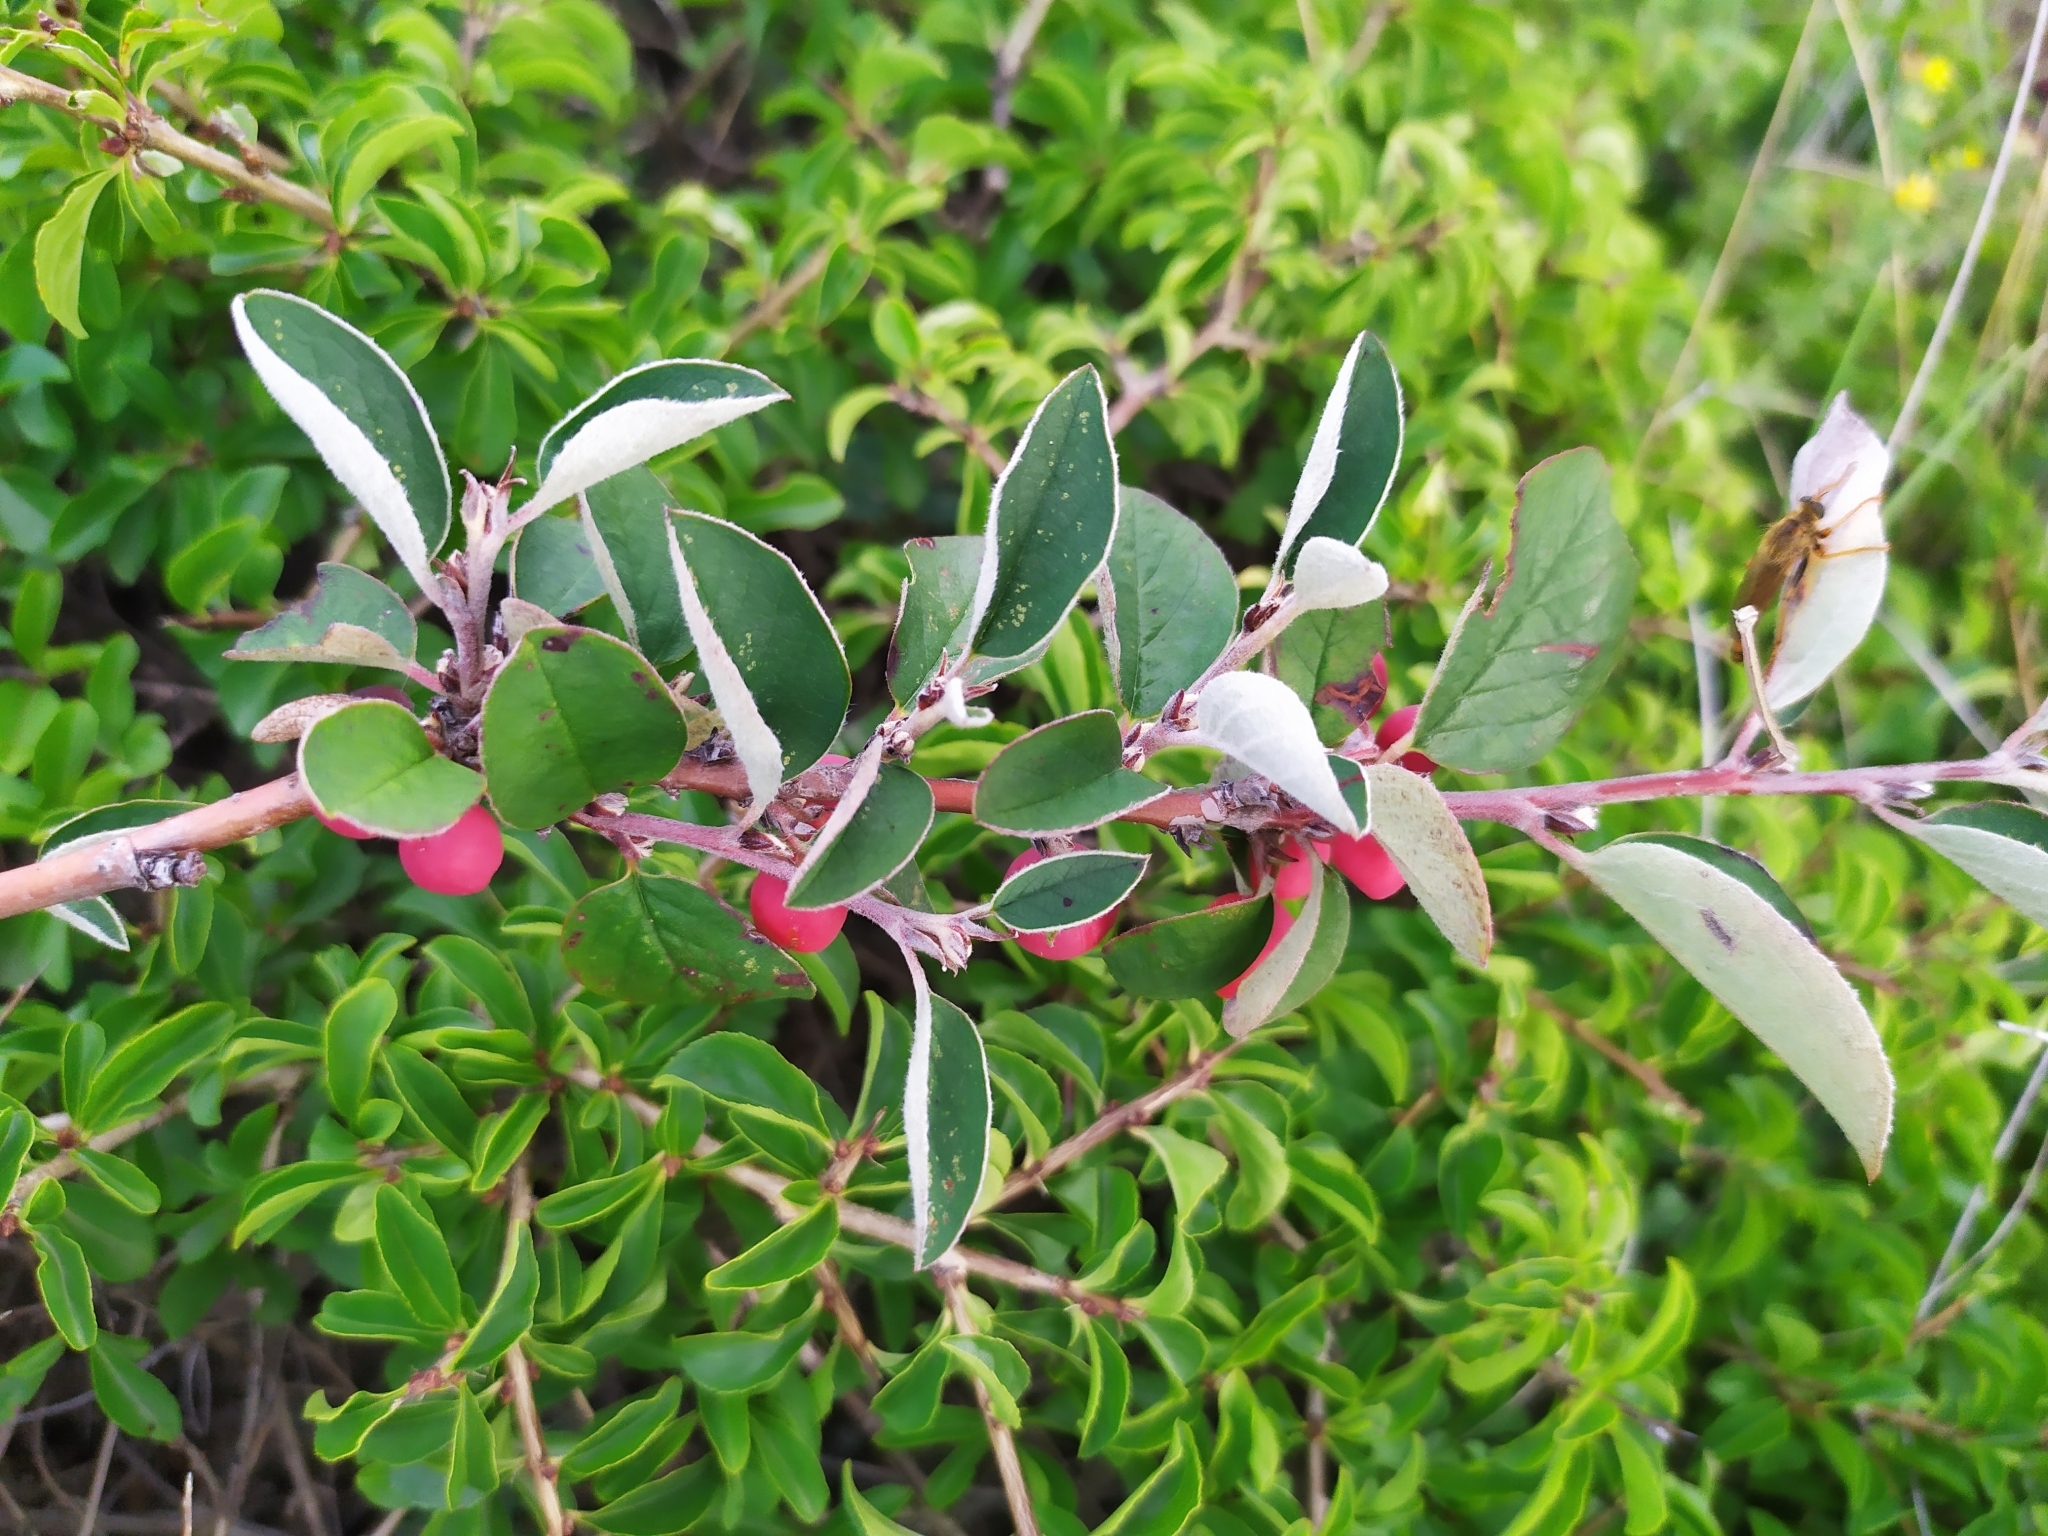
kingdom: Plantae
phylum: Tracheophyta
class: Magnoliopsida
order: Rosales
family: Rosaceae
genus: Cotoneaster
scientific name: Cotoneaster integerrimus
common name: Wild cotoneaster
